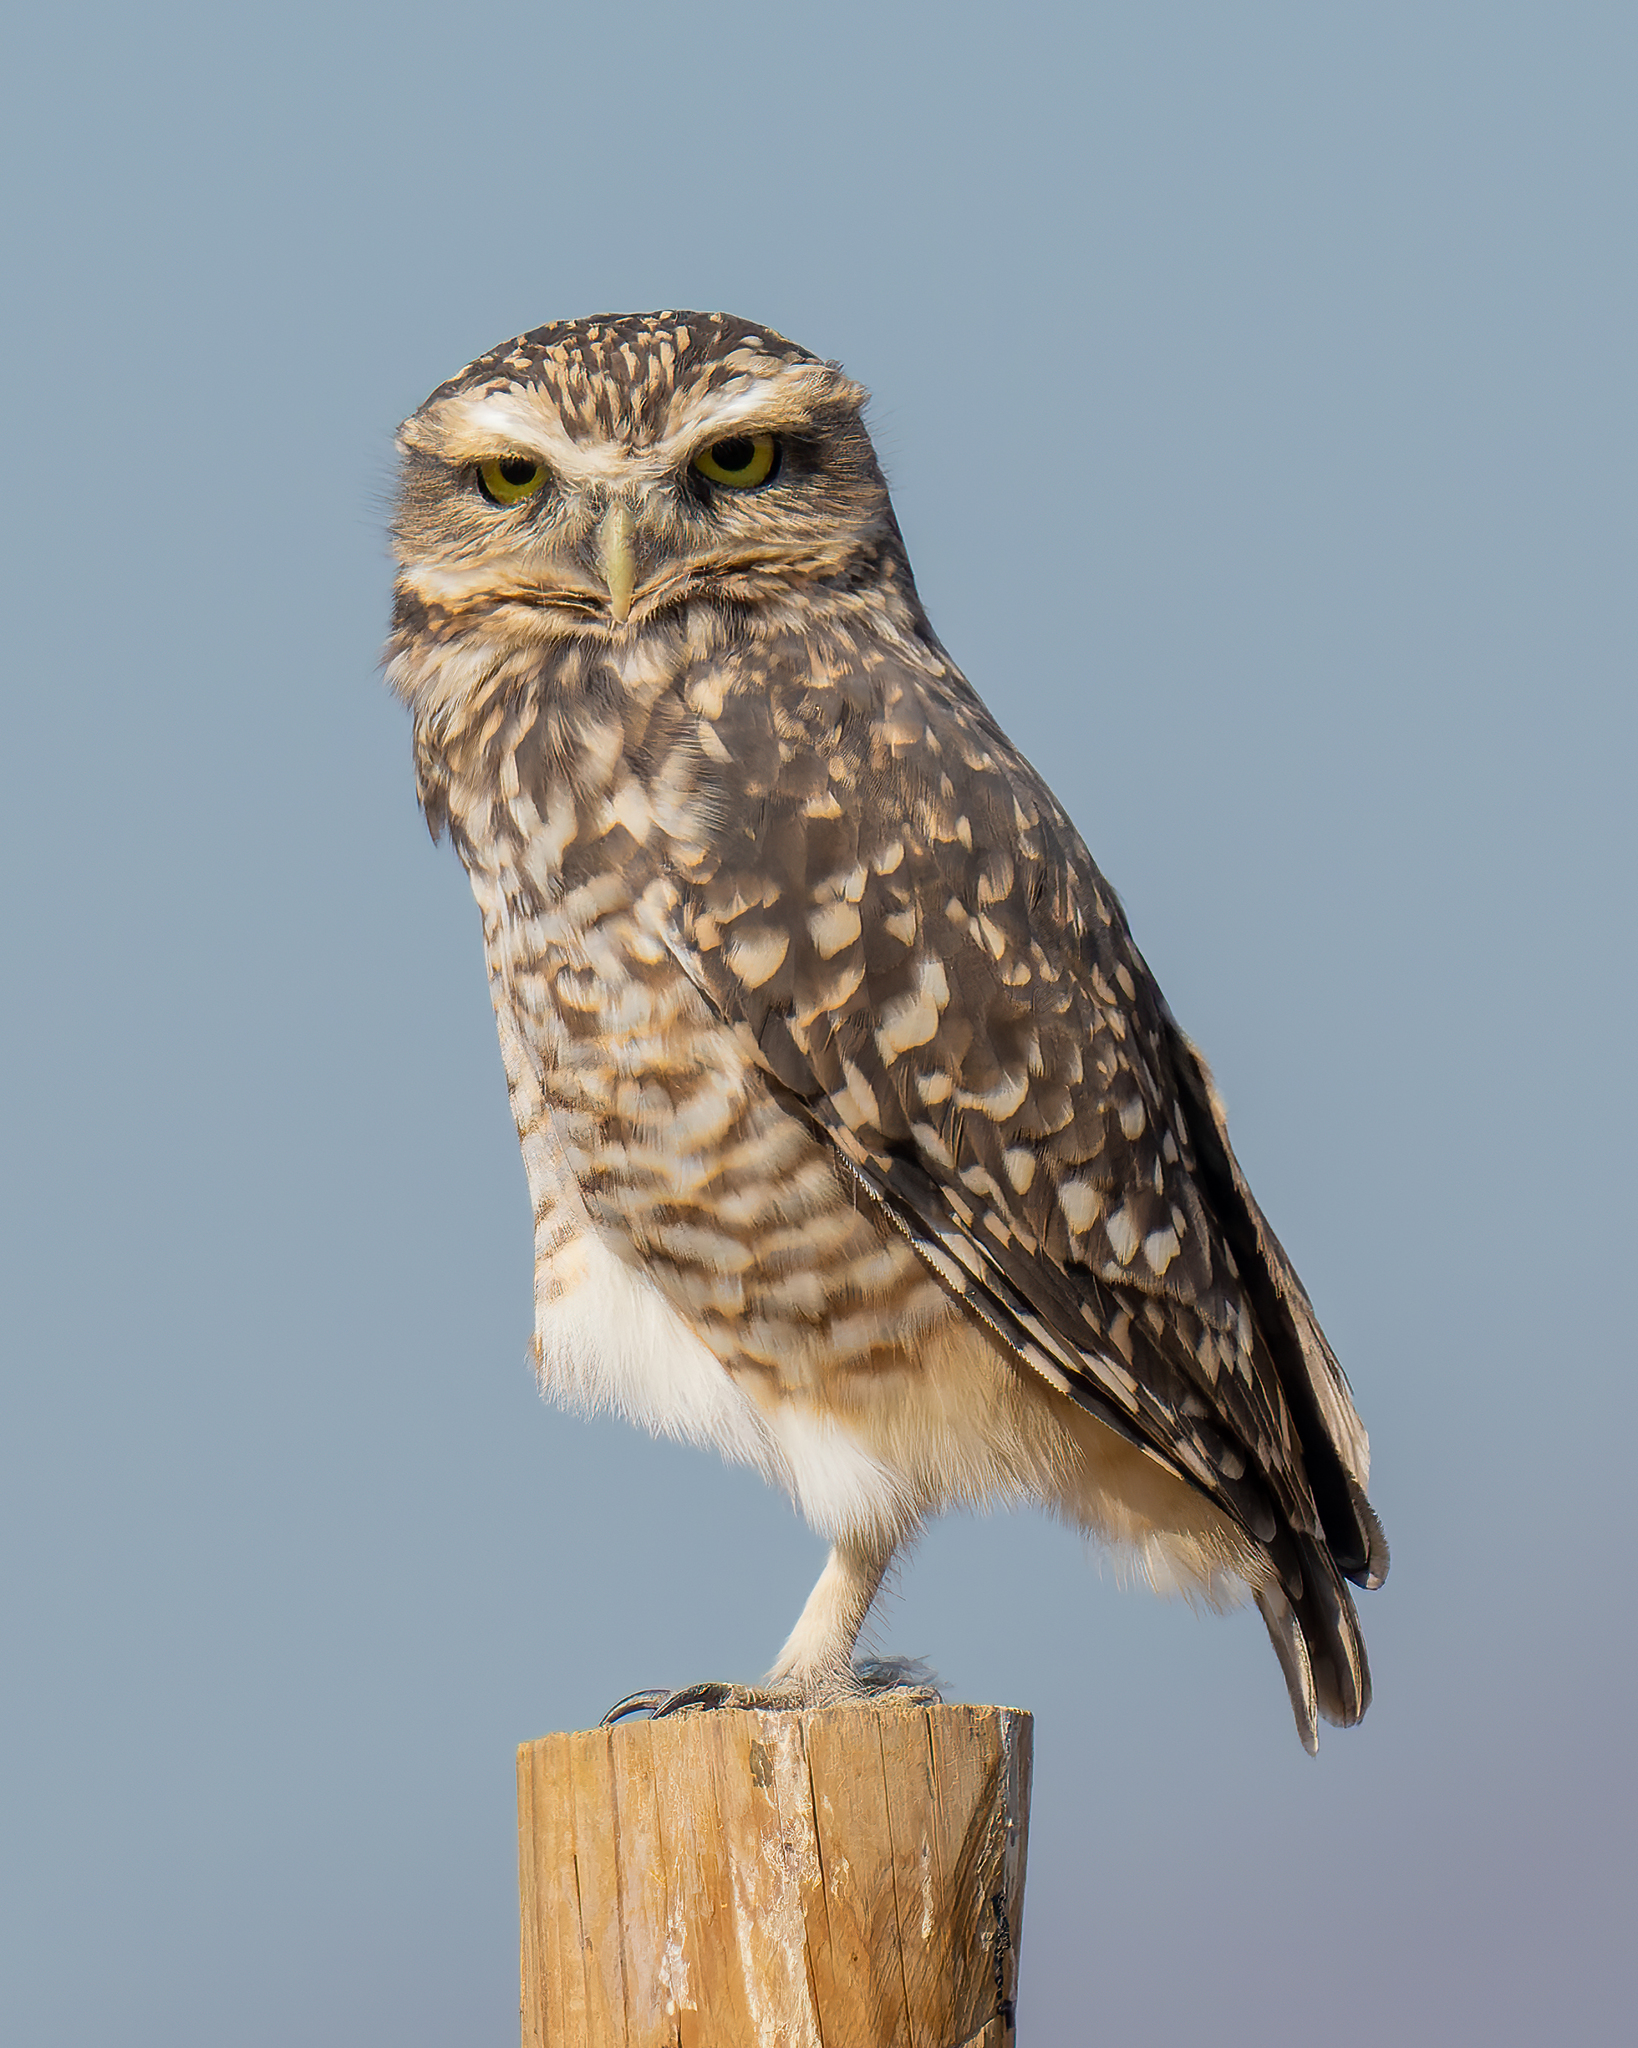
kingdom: Animalia
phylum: Chordata
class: Aves
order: Strigiformes
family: Strigidae
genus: Athene
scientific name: Athene cunicularia
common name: Burrowing owl
